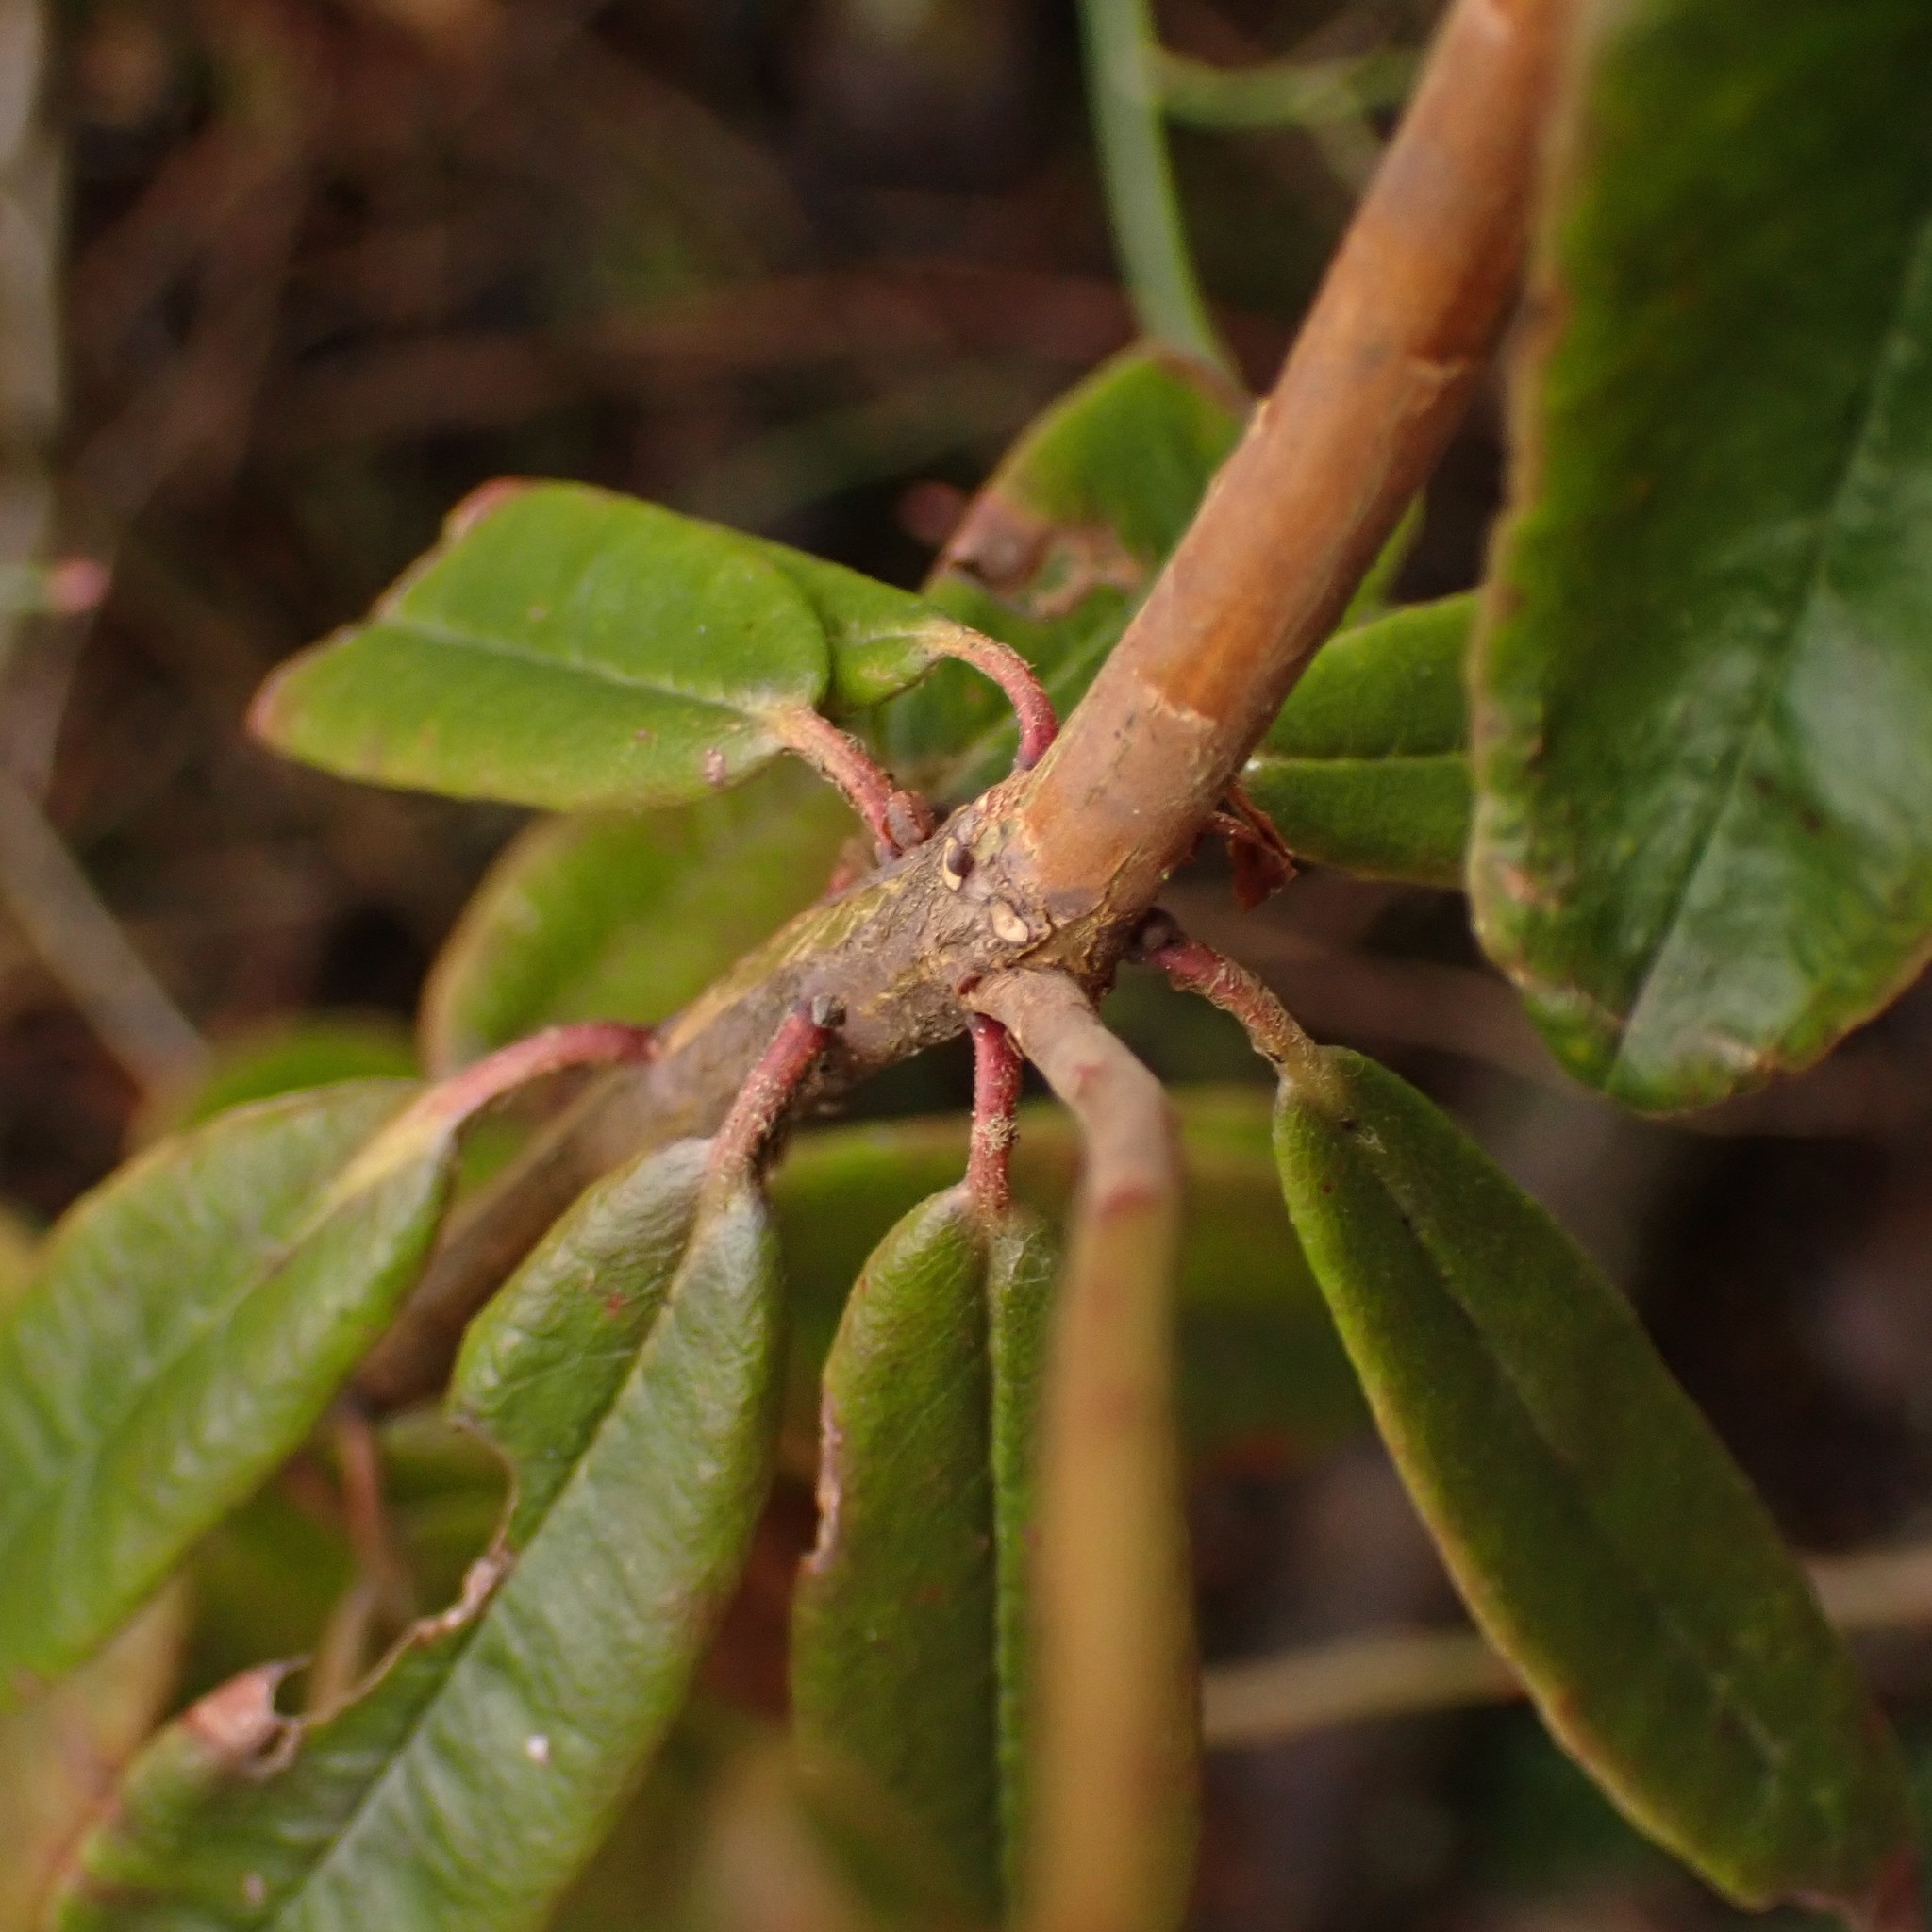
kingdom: Plantae
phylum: Tracheophyta
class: Magnoliopsida
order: Ericales
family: Ericaceae
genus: Rhododendron
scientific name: Rhododendron groenlandicum
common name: Bog labrador tea
